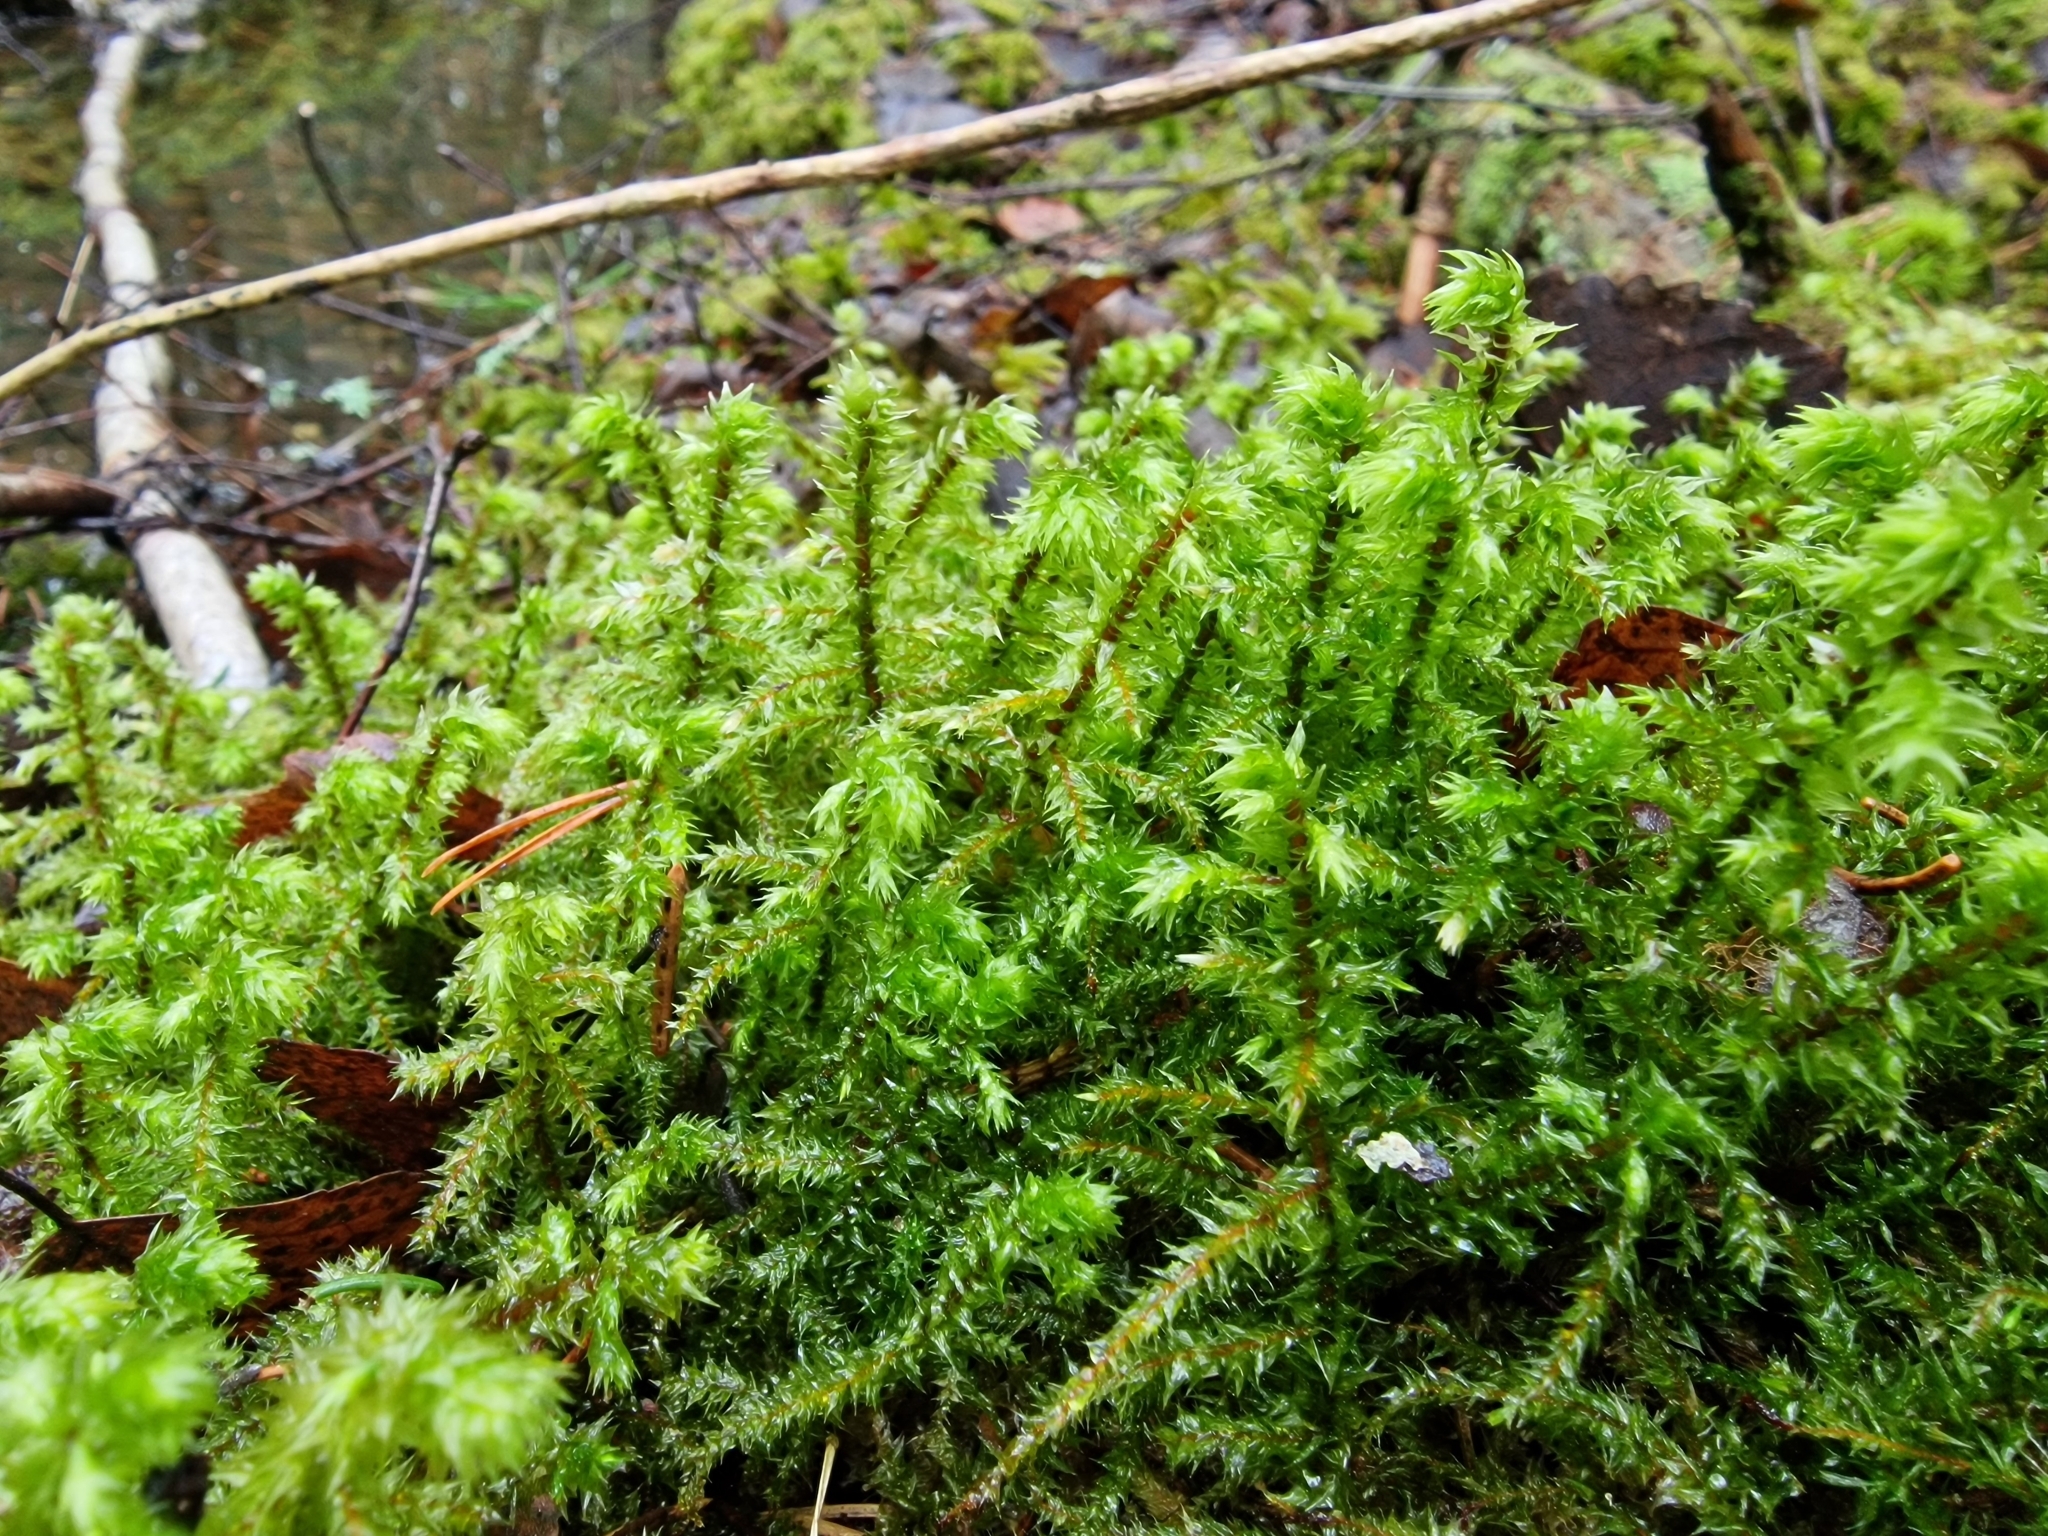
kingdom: Plantae
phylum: Bryophyta
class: Bryopsida
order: Hypnales
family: Hylocomiaceae
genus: Hylocomiadelphus
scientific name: Hylocomiadelphus triquetrus
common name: Rough goose neck moss
